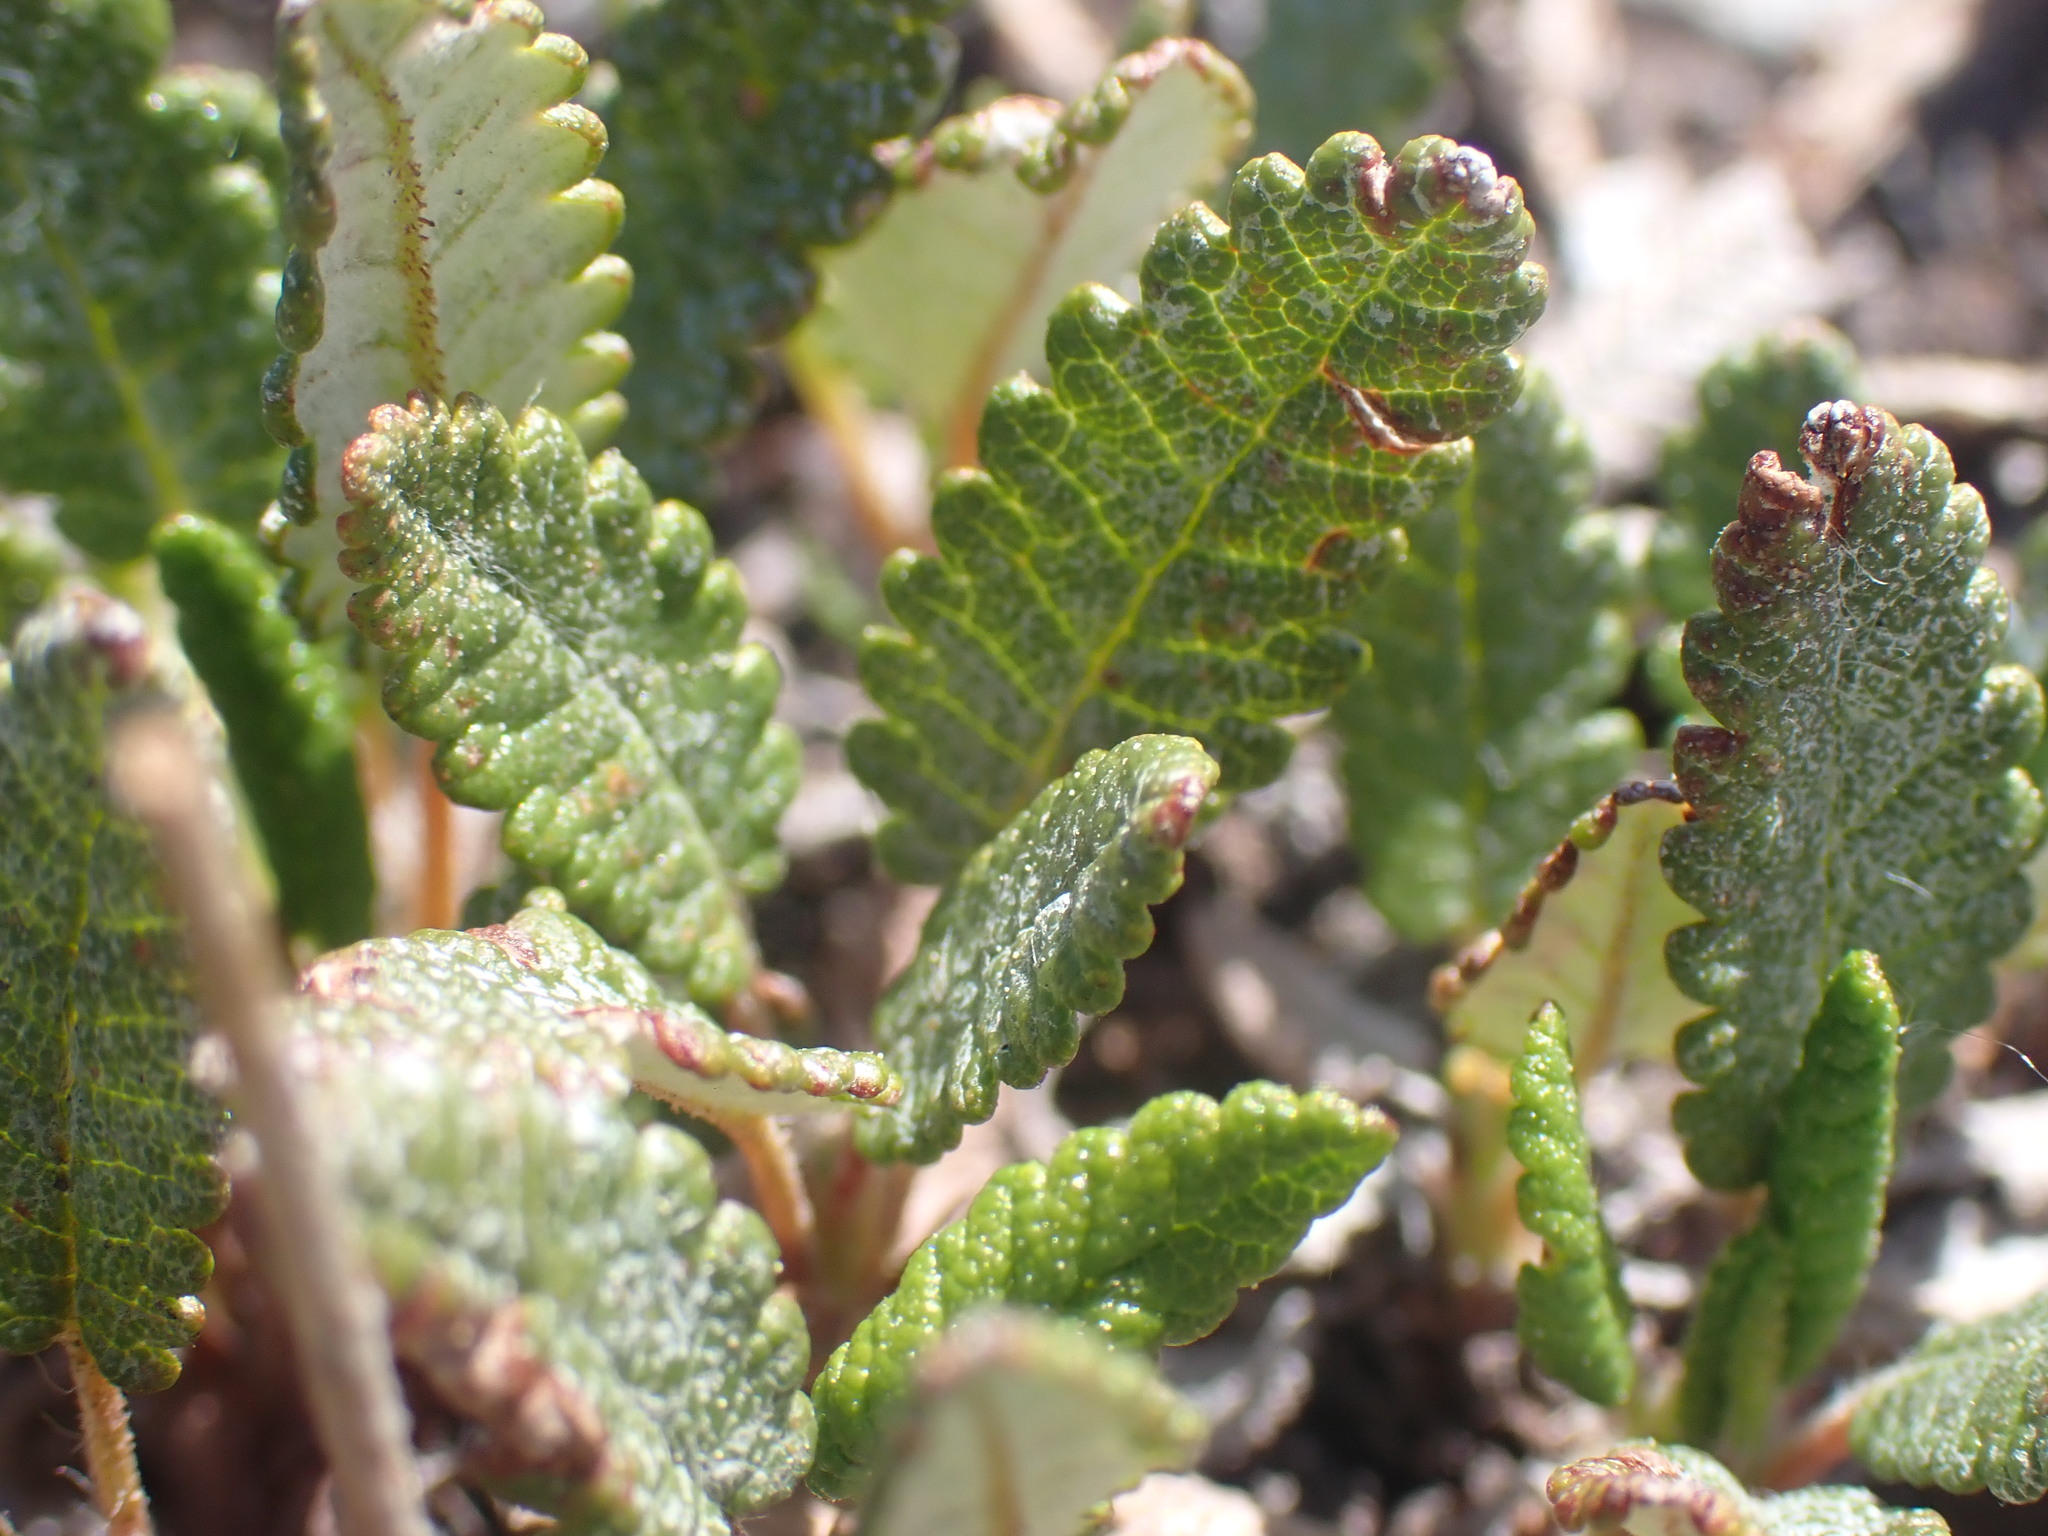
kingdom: Plantae
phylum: Tracheophyta
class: Magnoliopsida
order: Rosales
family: Rosaceae
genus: Dryas
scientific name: Dryas octopetala
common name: Eight-petal mountain-avens
